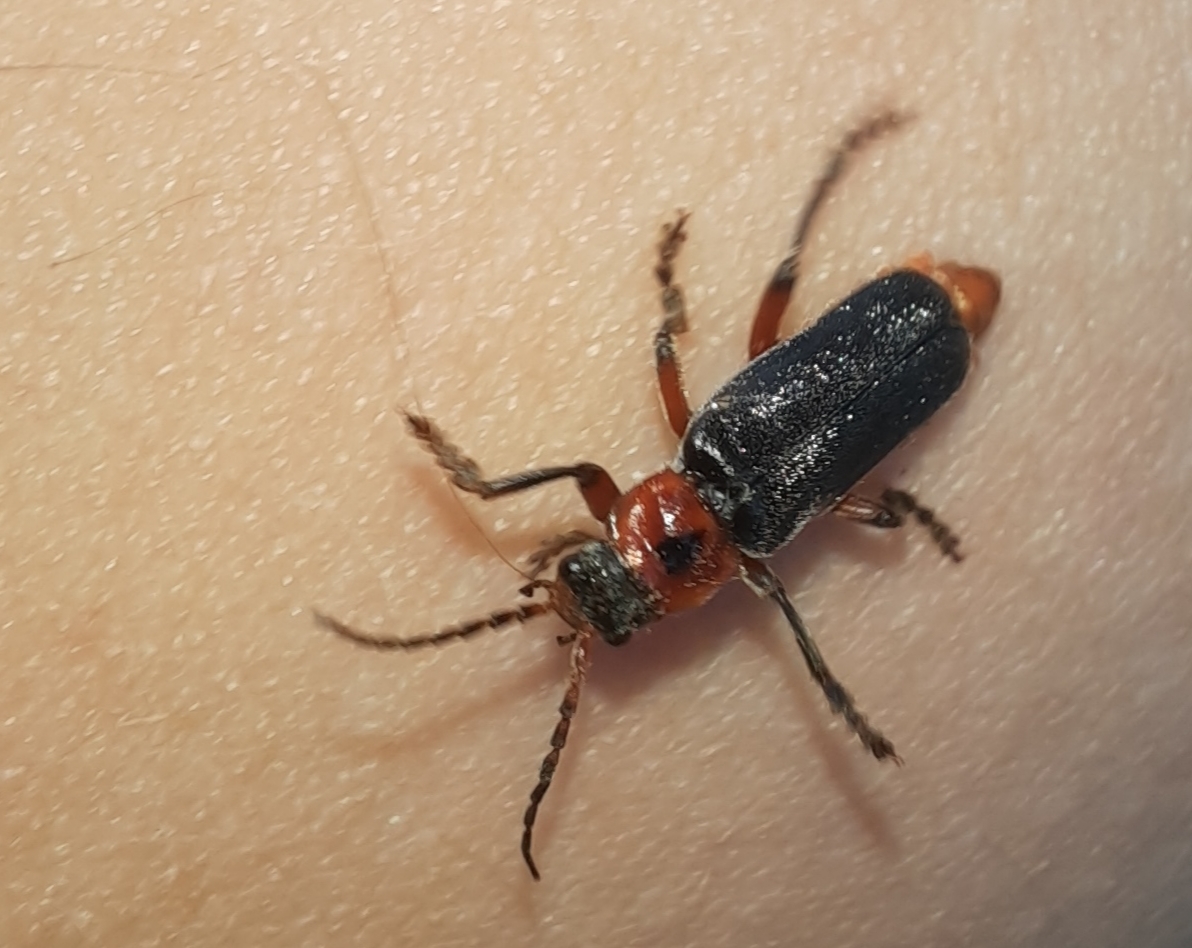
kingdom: Animalia
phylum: Arthropoda
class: Insecta
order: Coleoptera
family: Cantharidae
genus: Cantharis
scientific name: Cantharis rustica
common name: Soldier beetle
